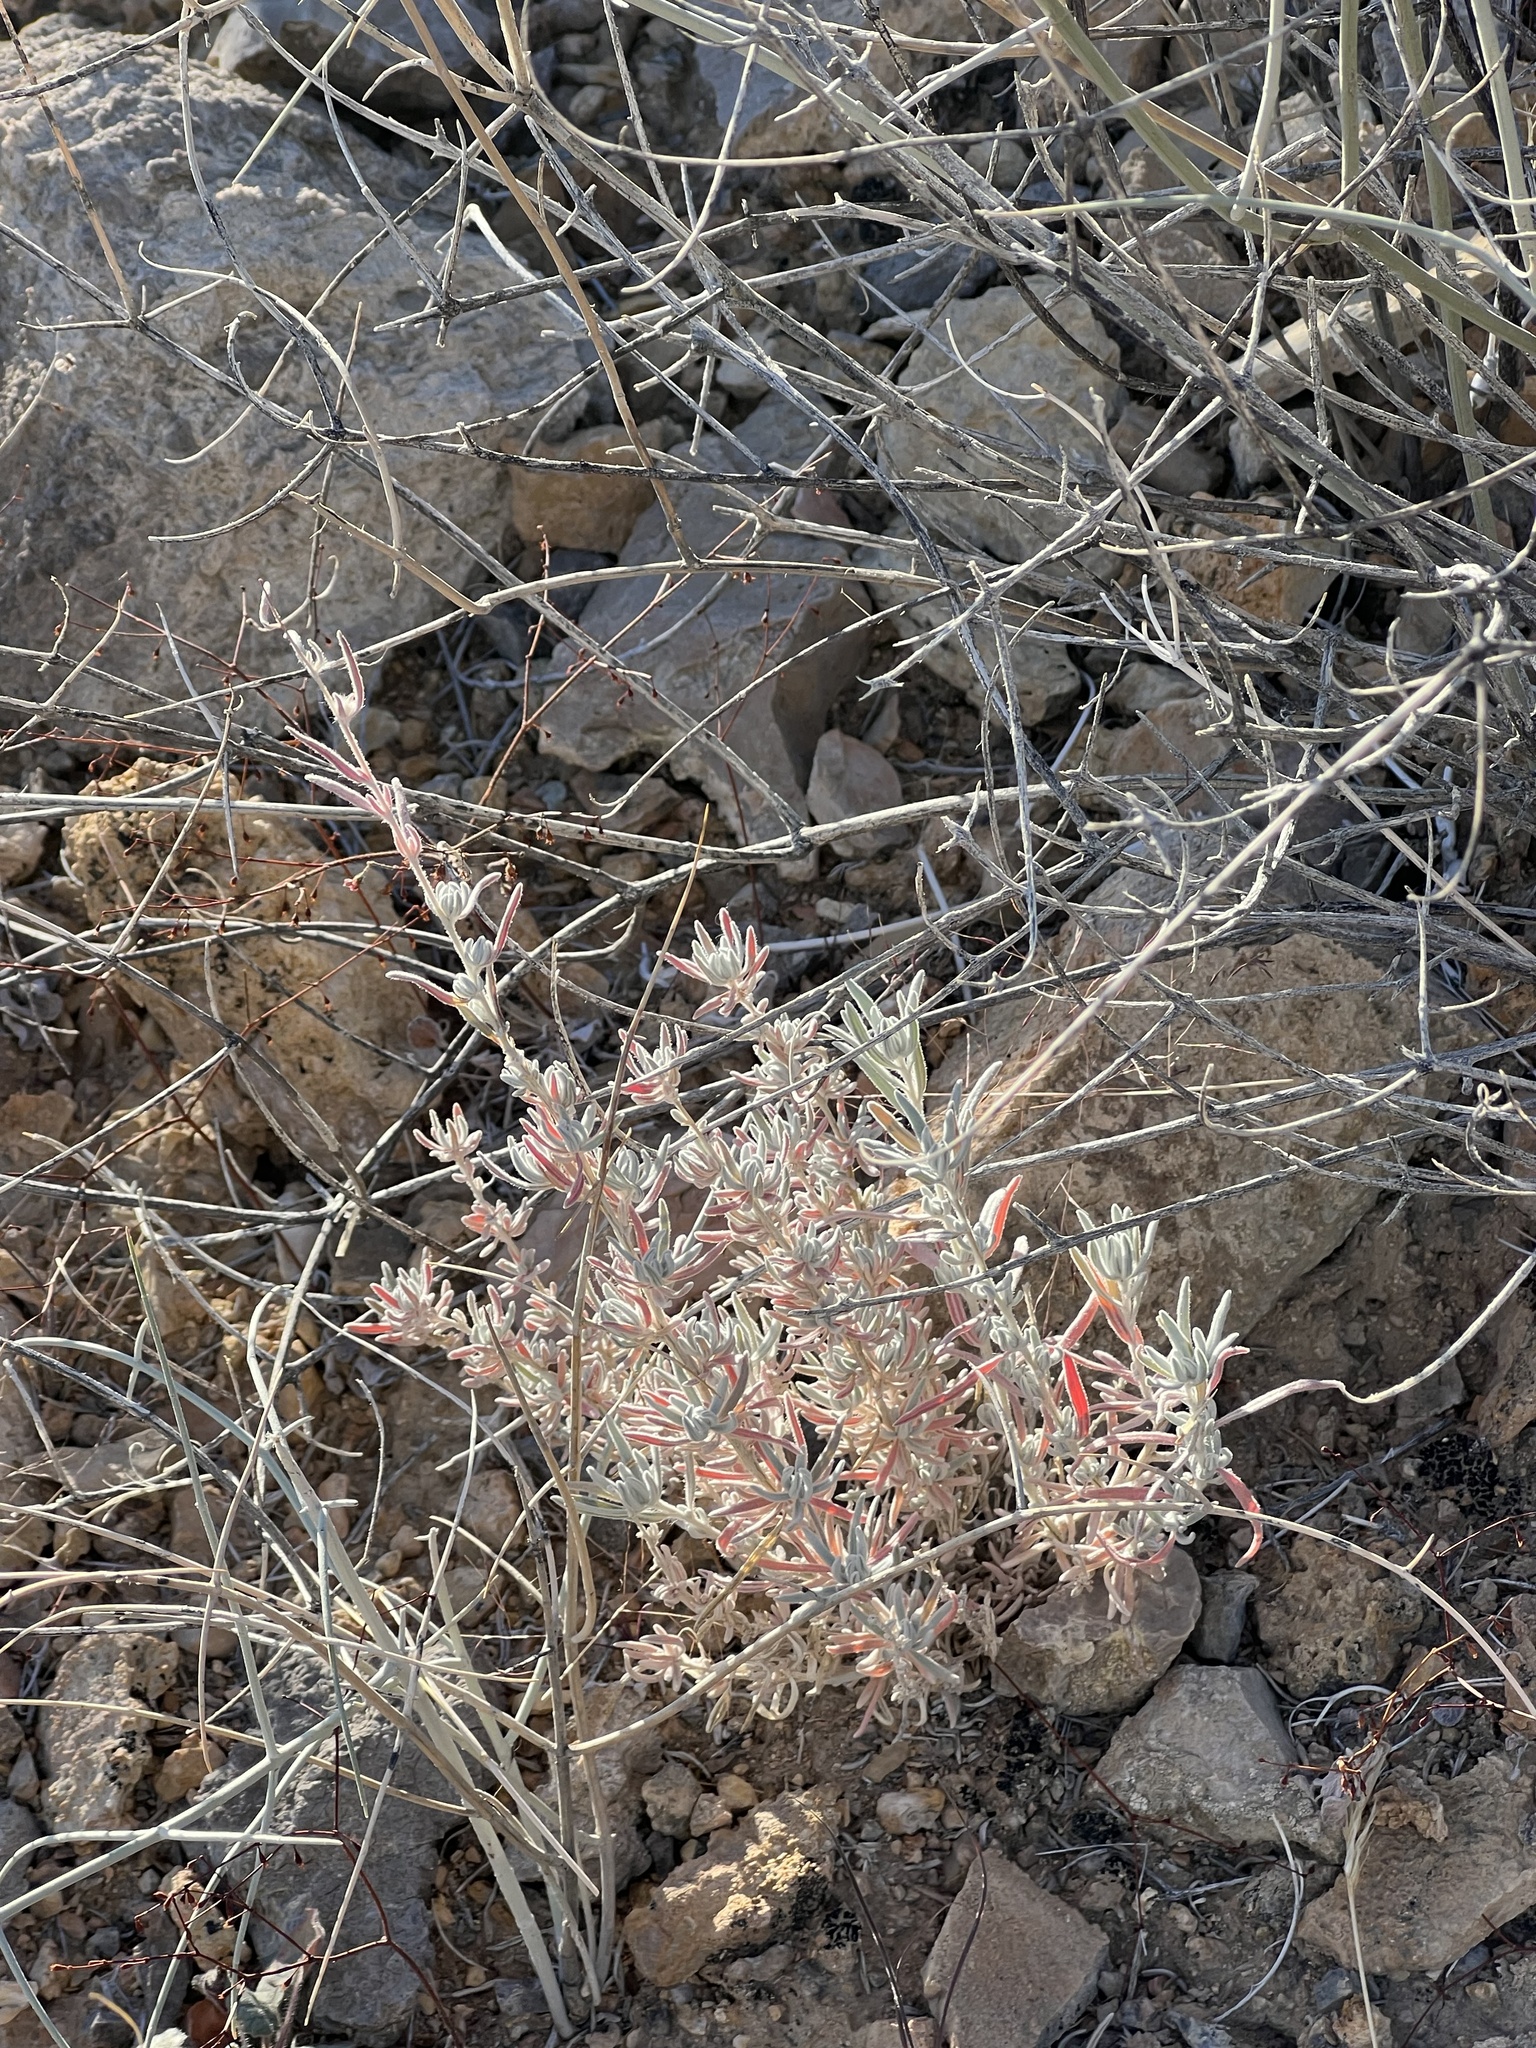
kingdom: Plantae
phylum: Tracheophyta
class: Magnoliopsida
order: Caryophyllales
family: Amaranthaceae
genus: Krascheninnikovia
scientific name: Krascheninnikovia lanata
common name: Winterfat
